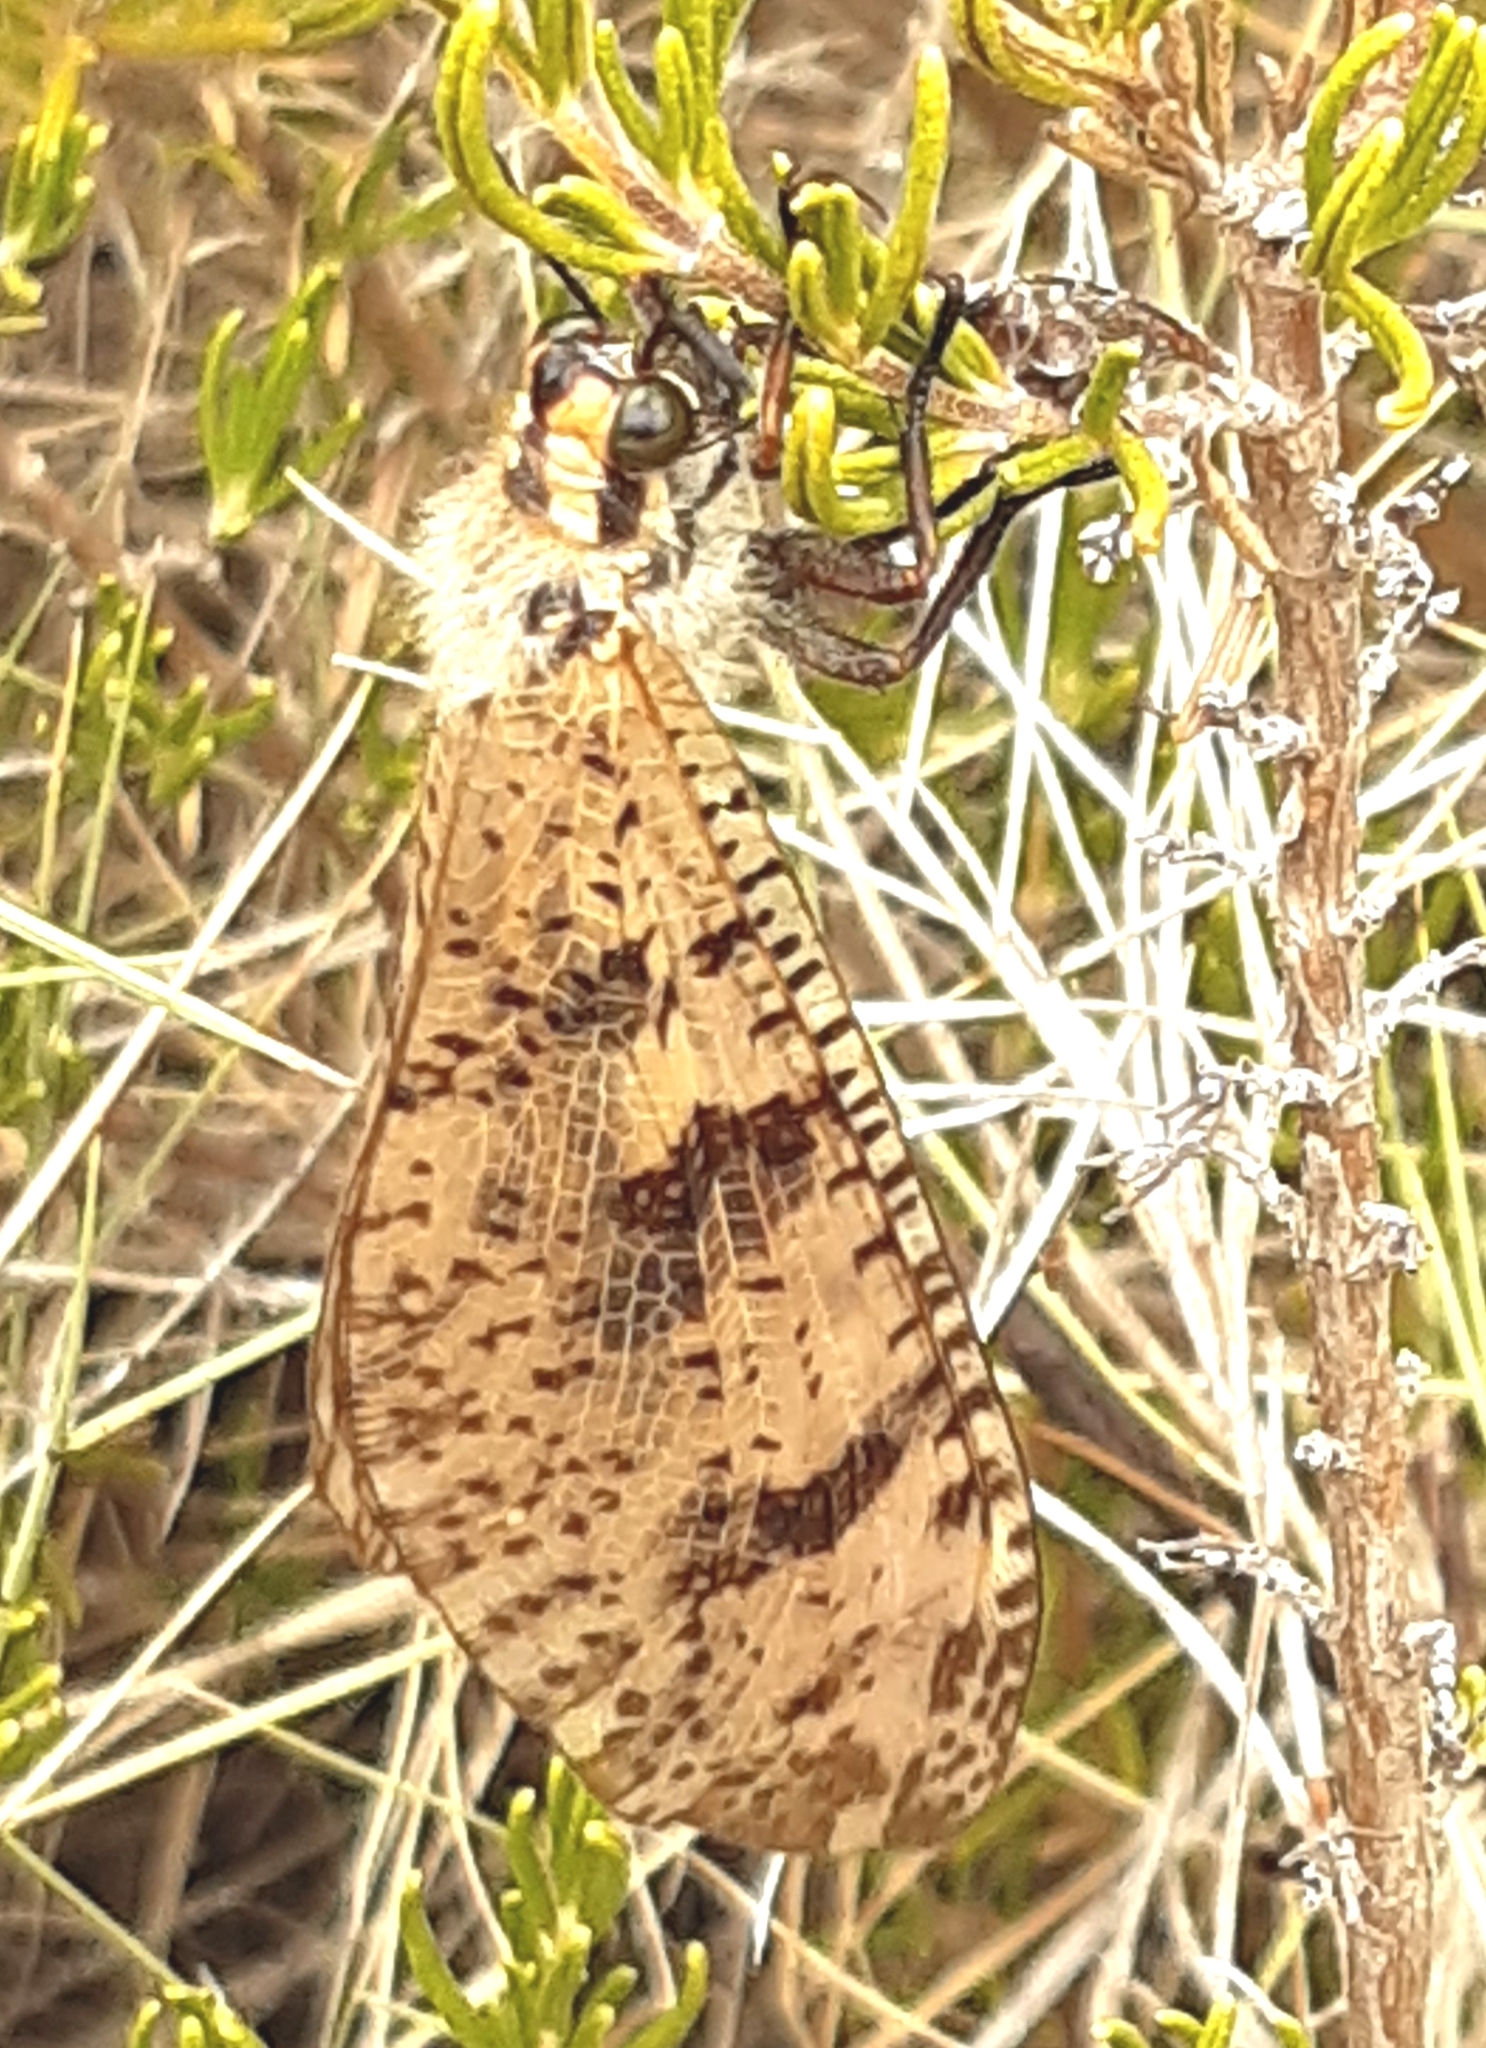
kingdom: Animalia
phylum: Arthropoda
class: Insecta
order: Neuroptera
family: Myrmeleontidae
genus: Palpares
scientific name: Palpares libelluloides
